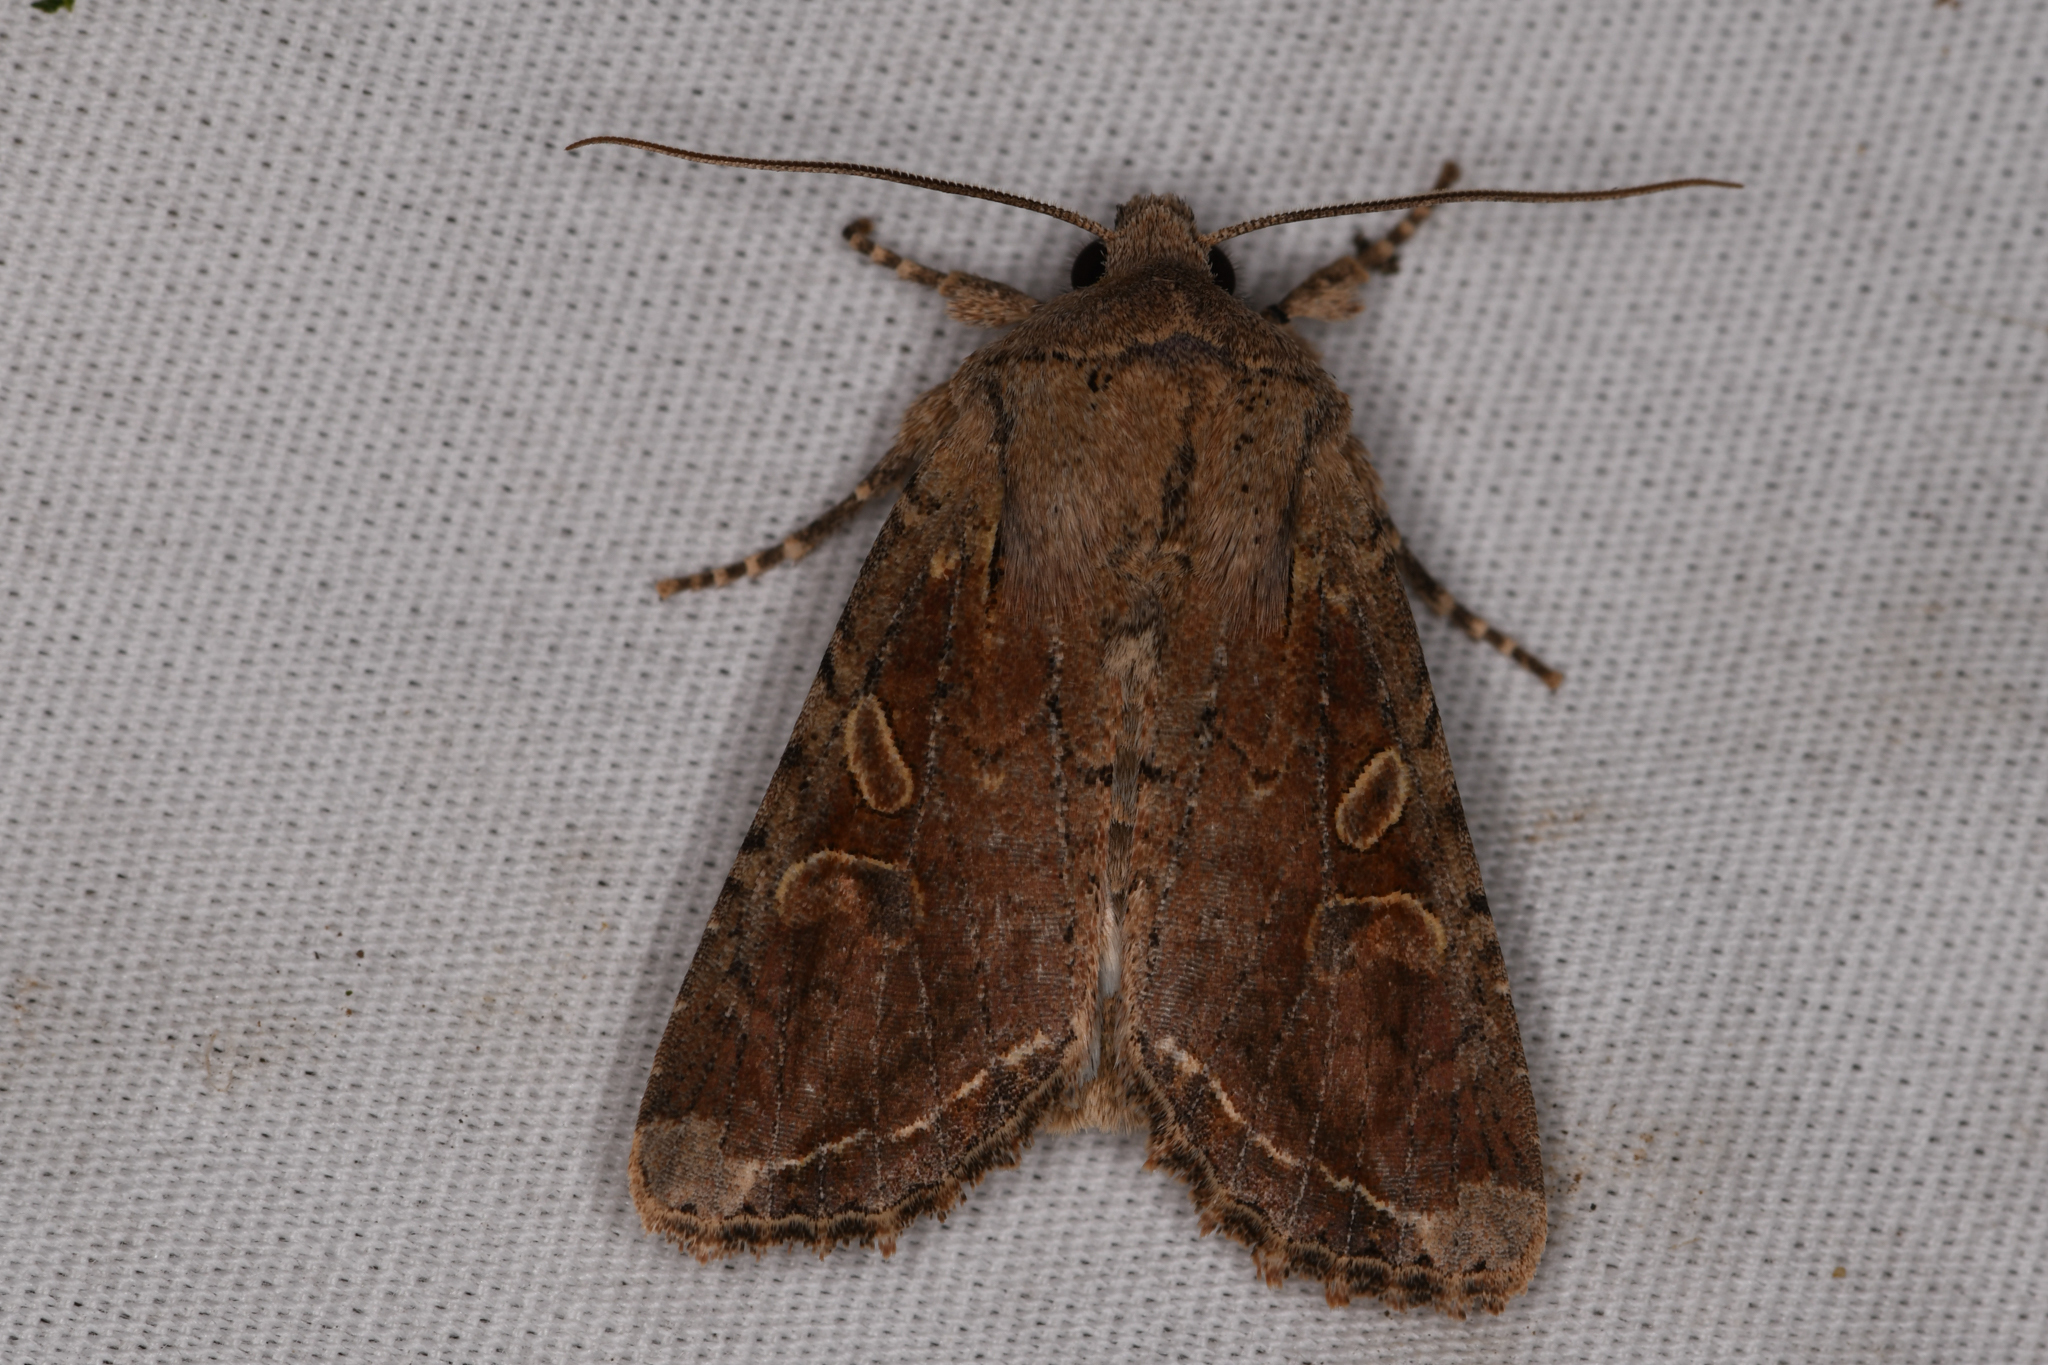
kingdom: Animalia
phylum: Arthropoda
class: Insecta
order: Lepidoptera
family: Noctuidae
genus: Egira
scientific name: Egira rubrica
